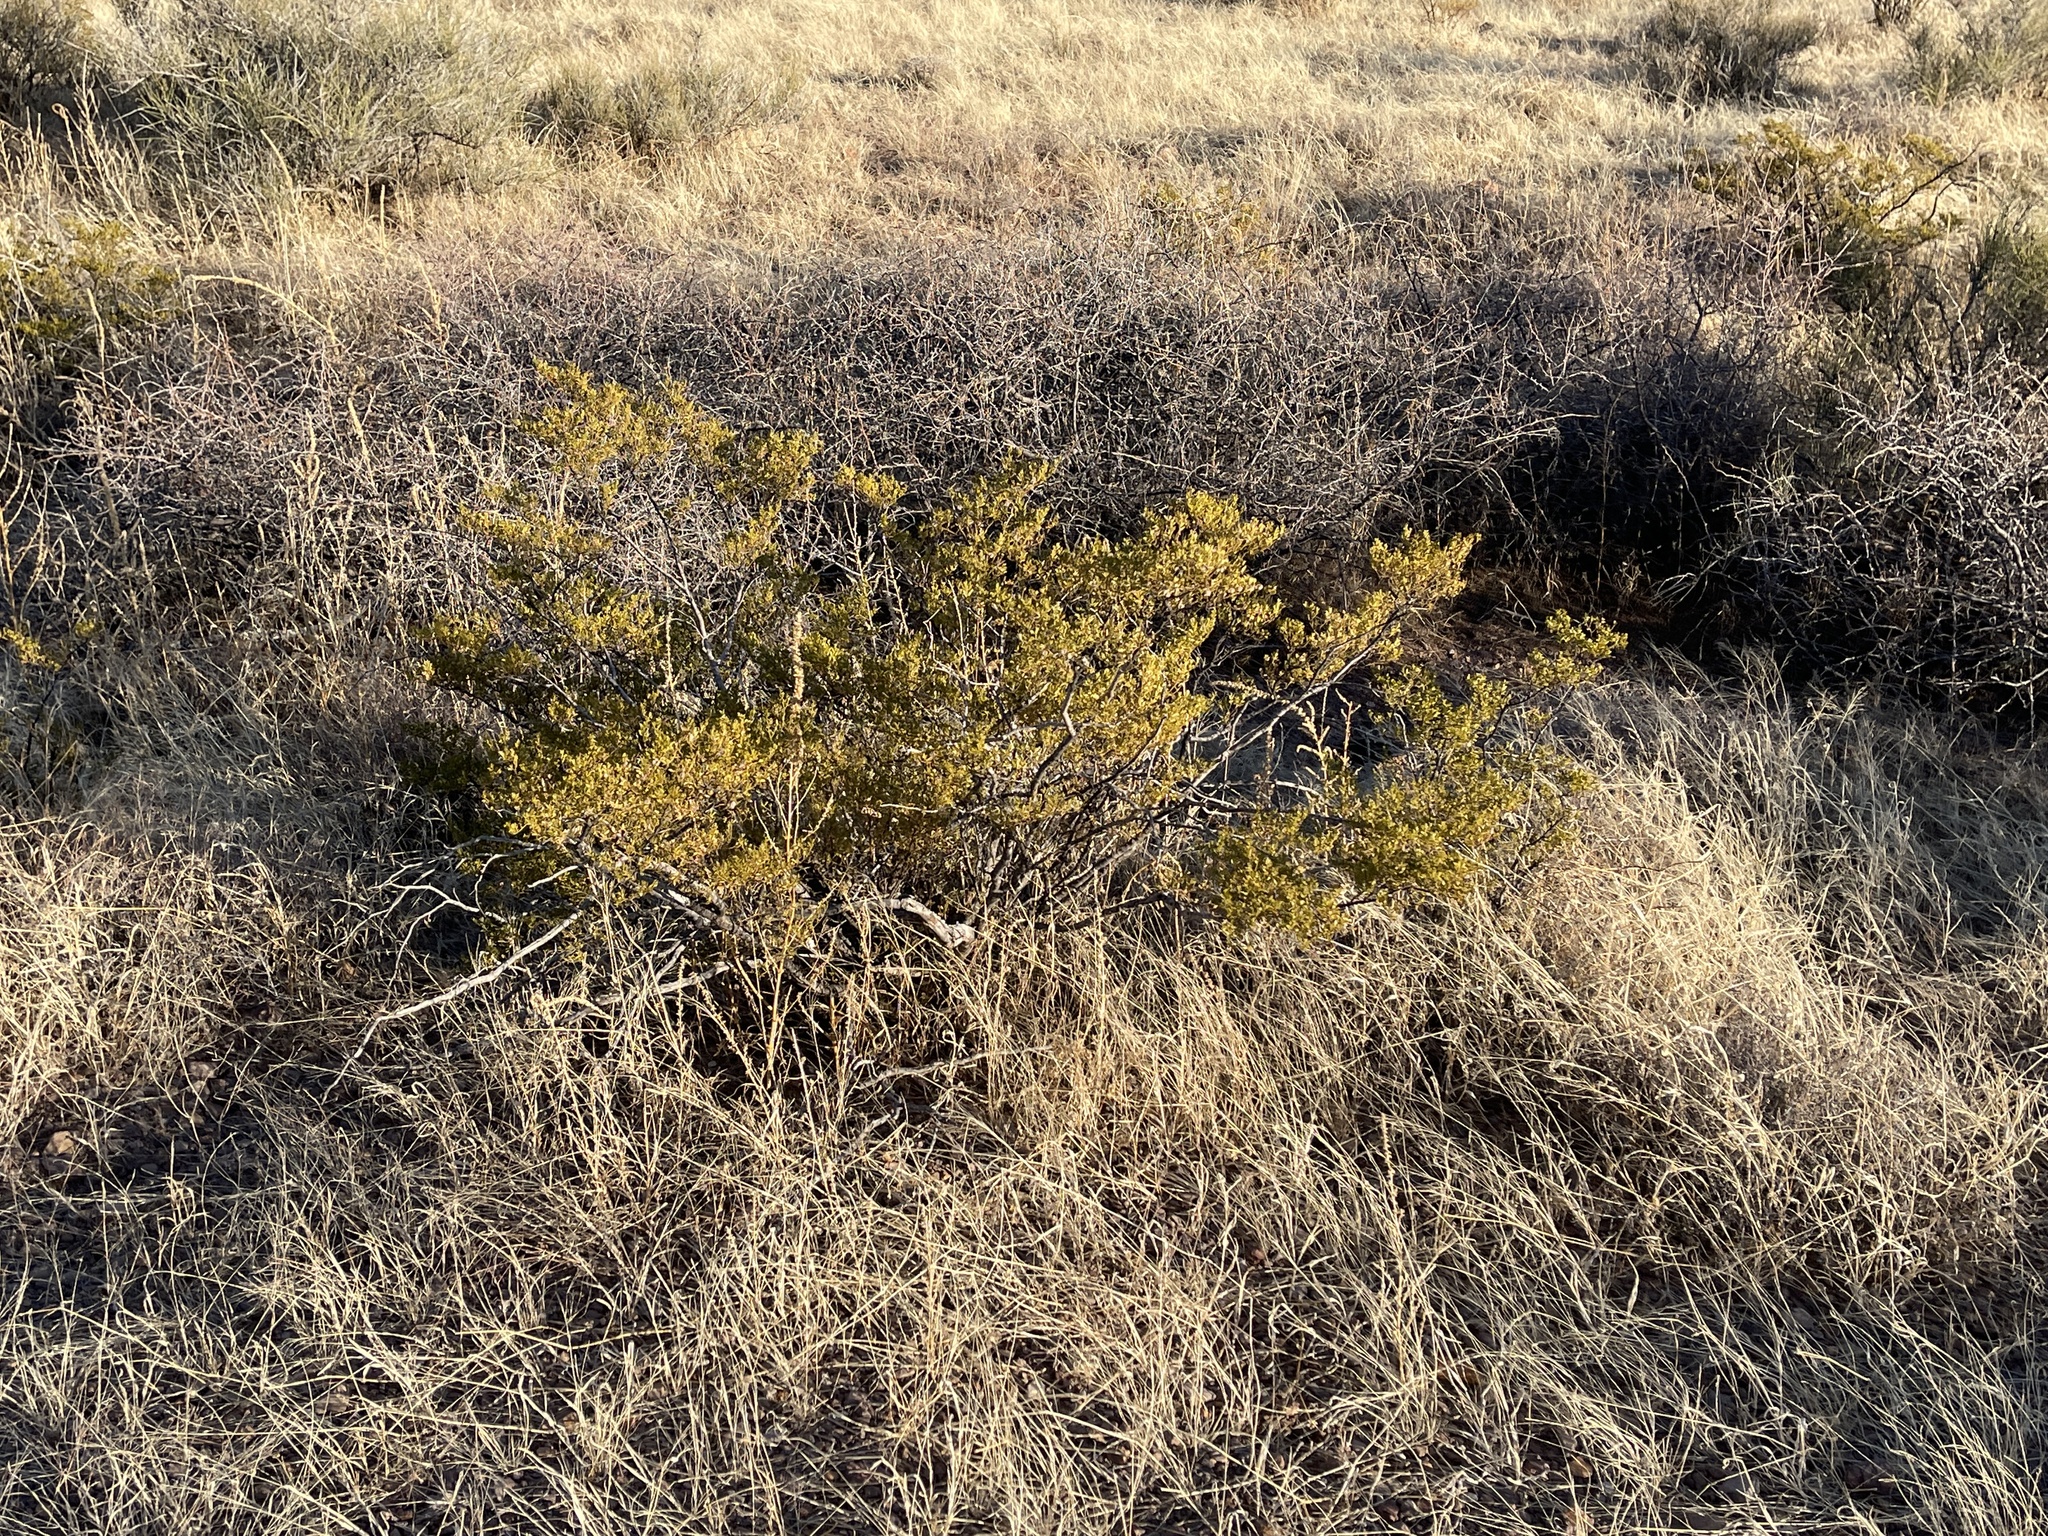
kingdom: Plantae
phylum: Tracheophyta
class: Magnoliopsida
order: Zygophyllales
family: Zygophyllaceae
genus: Larrea
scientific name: Larrea tridentata
